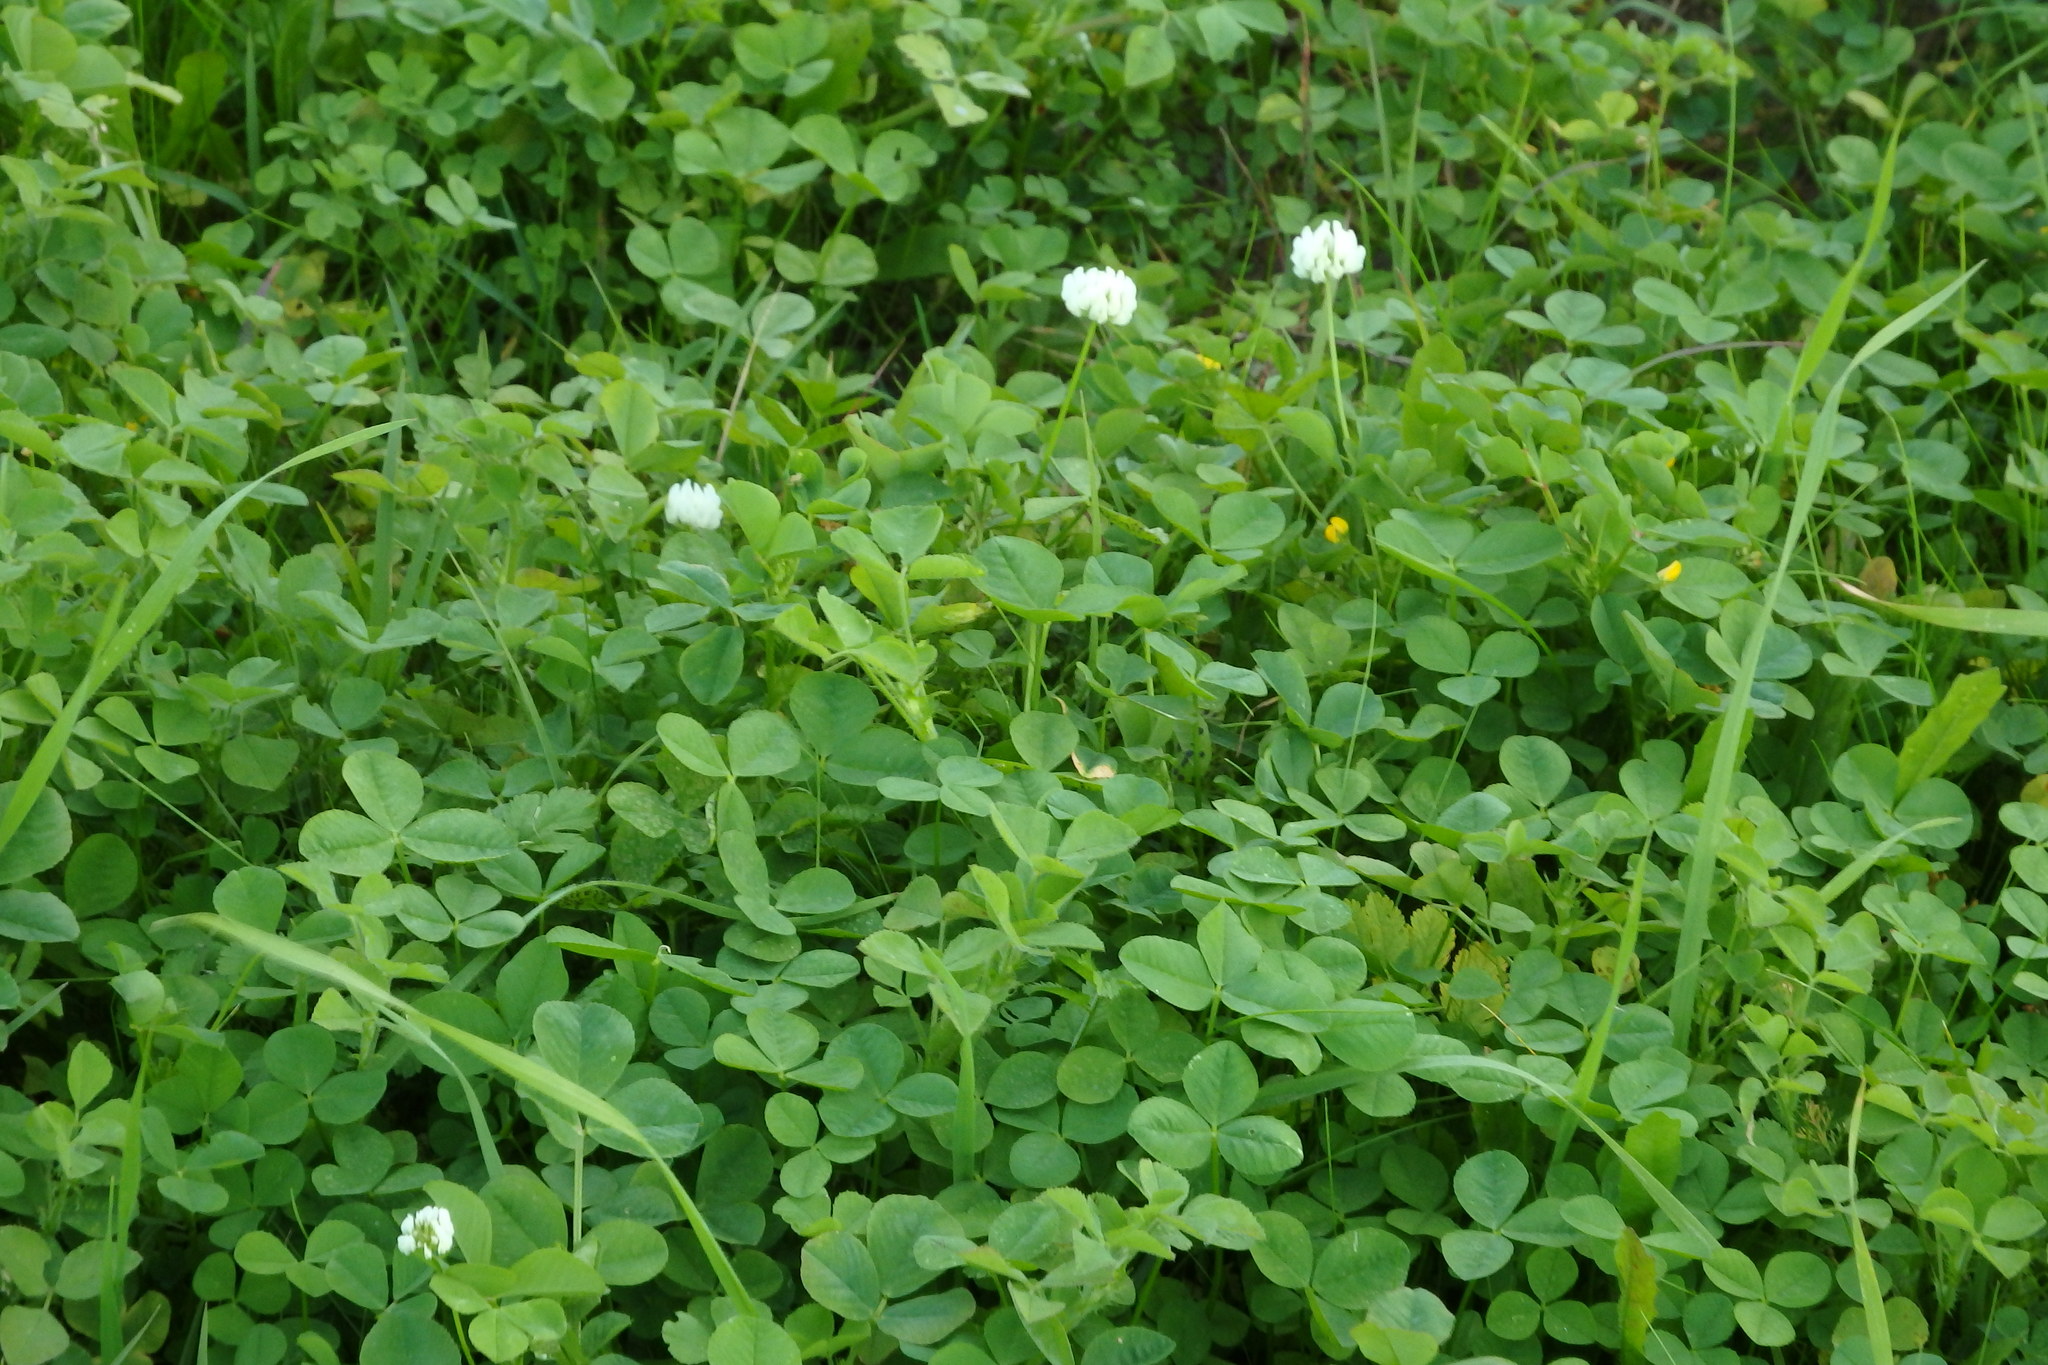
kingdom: Plantae
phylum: Tracheophyta
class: Magnoliopsida
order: Fabales
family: Fabaceae
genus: Trifolium
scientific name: Trifolium repens
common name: White clover
